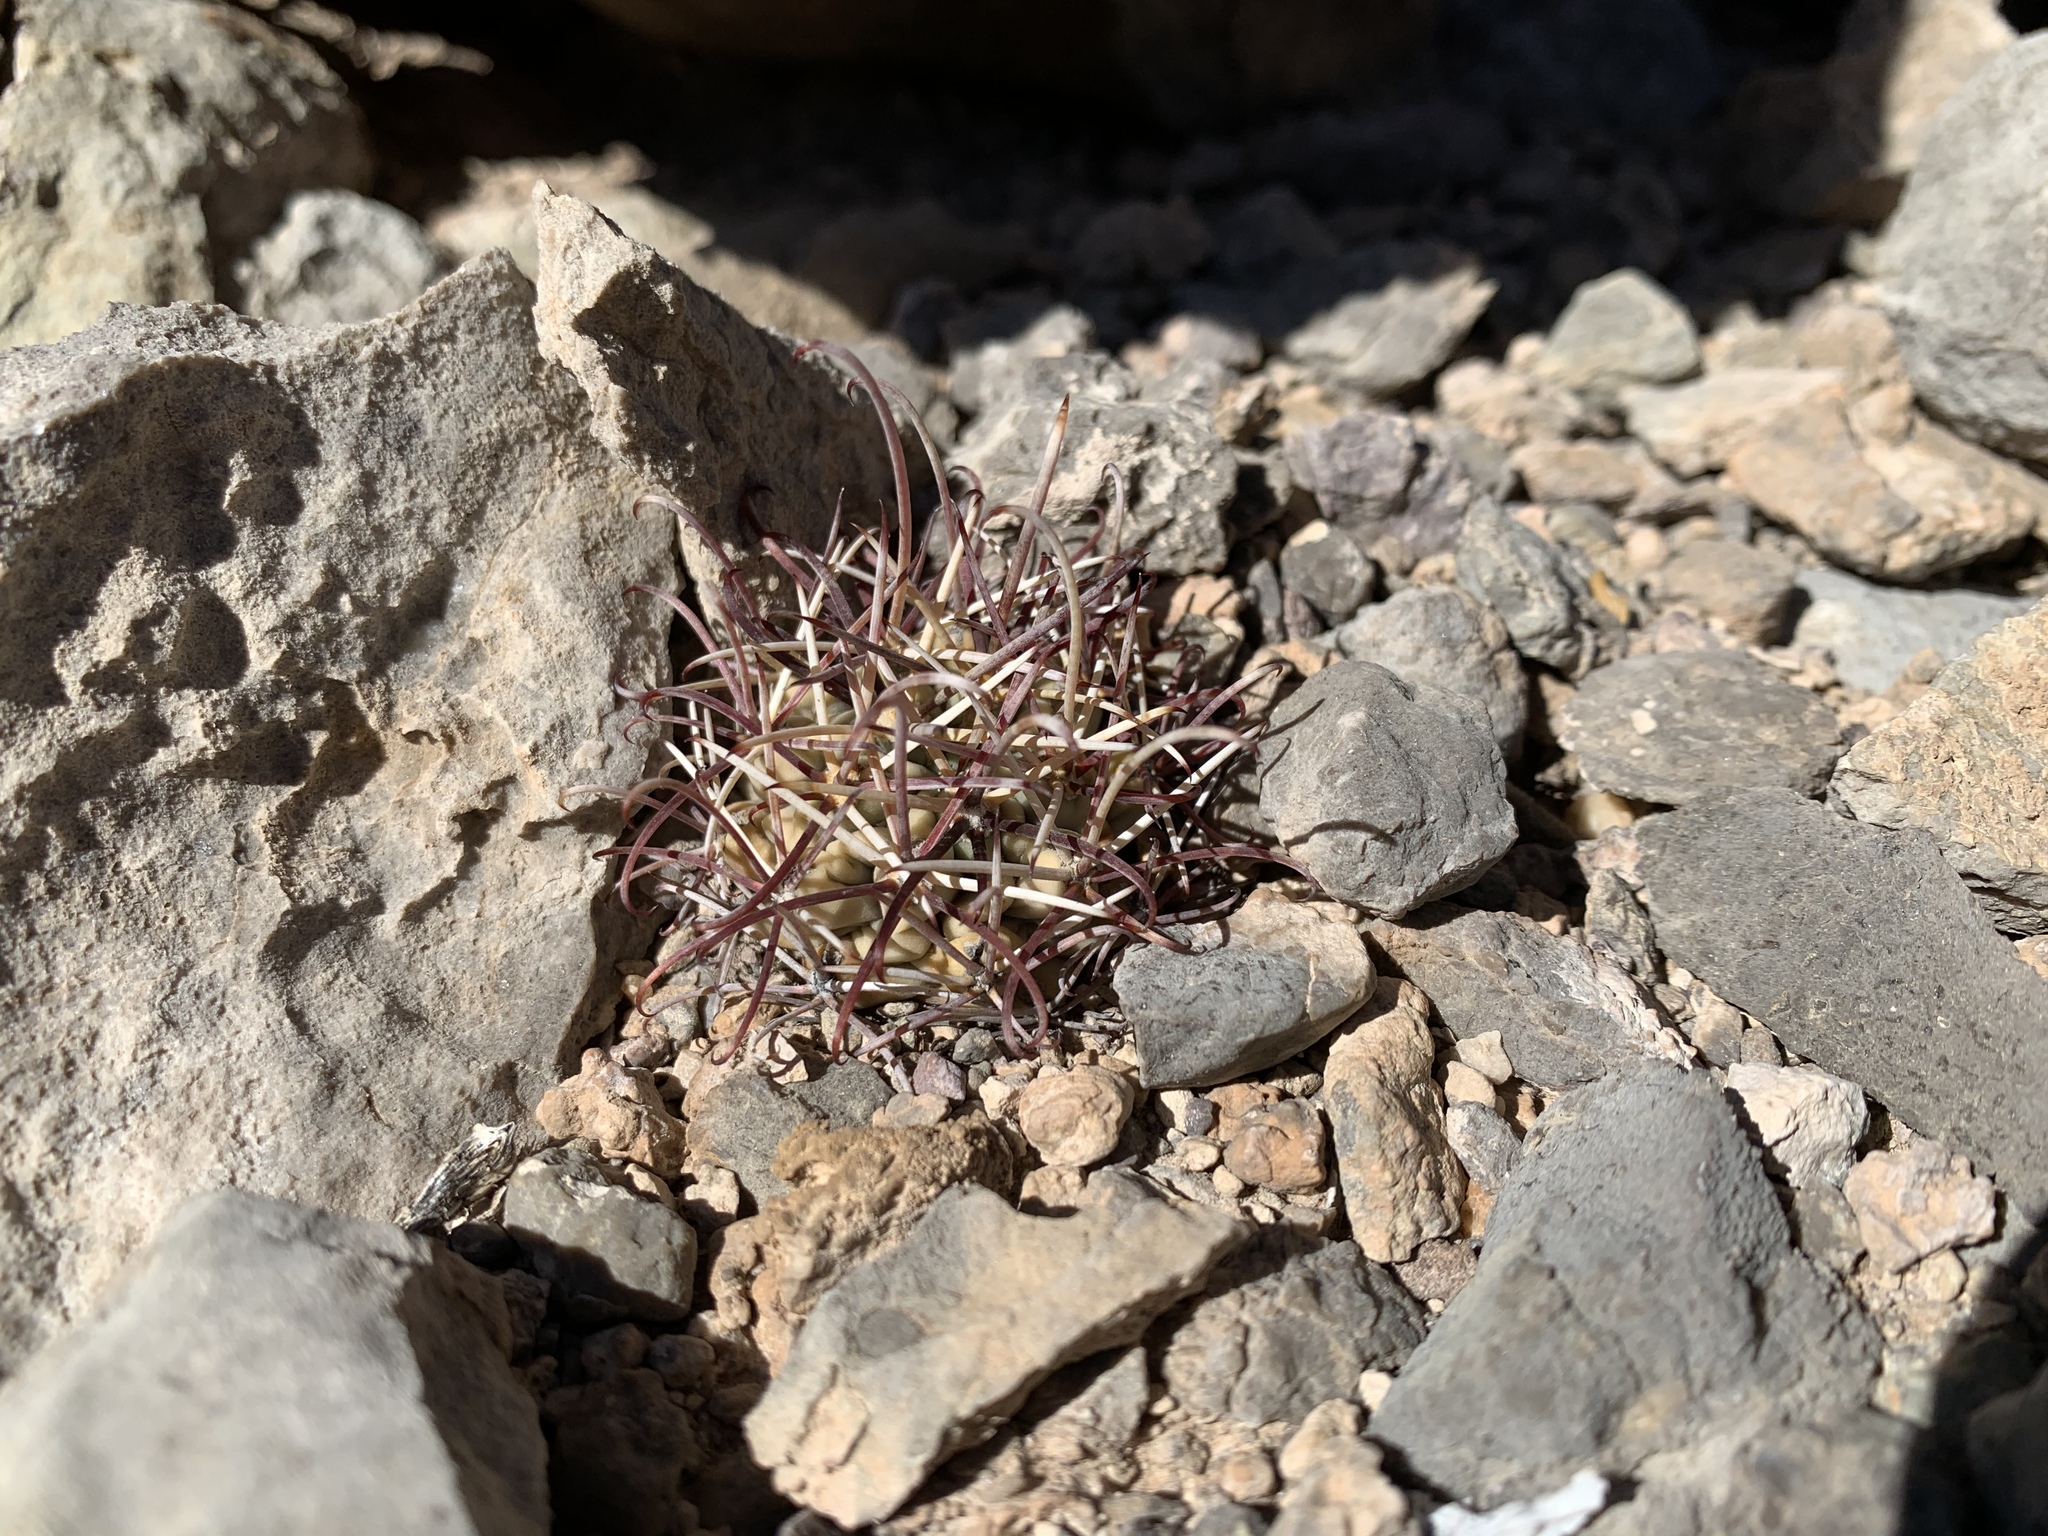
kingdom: Plantae
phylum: Tracheophyta
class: Magnoliopsida
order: Caryophyllales
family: Cactaceae
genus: Ferocactus
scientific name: Ferocactus uncinatus
